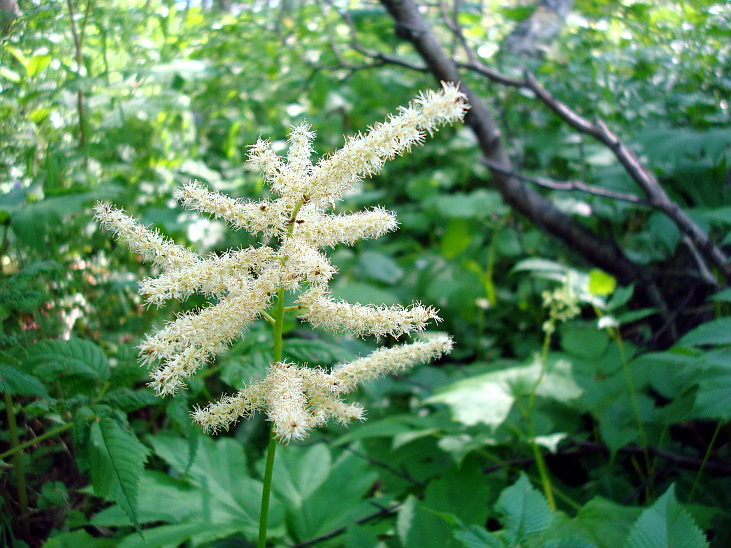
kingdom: Plantae
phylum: Tracheophyta
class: Magnoliopsida
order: Rosales
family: Rosaceae
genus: Aruncus
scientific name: Aruncus dioicus
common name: Buck's-beard
